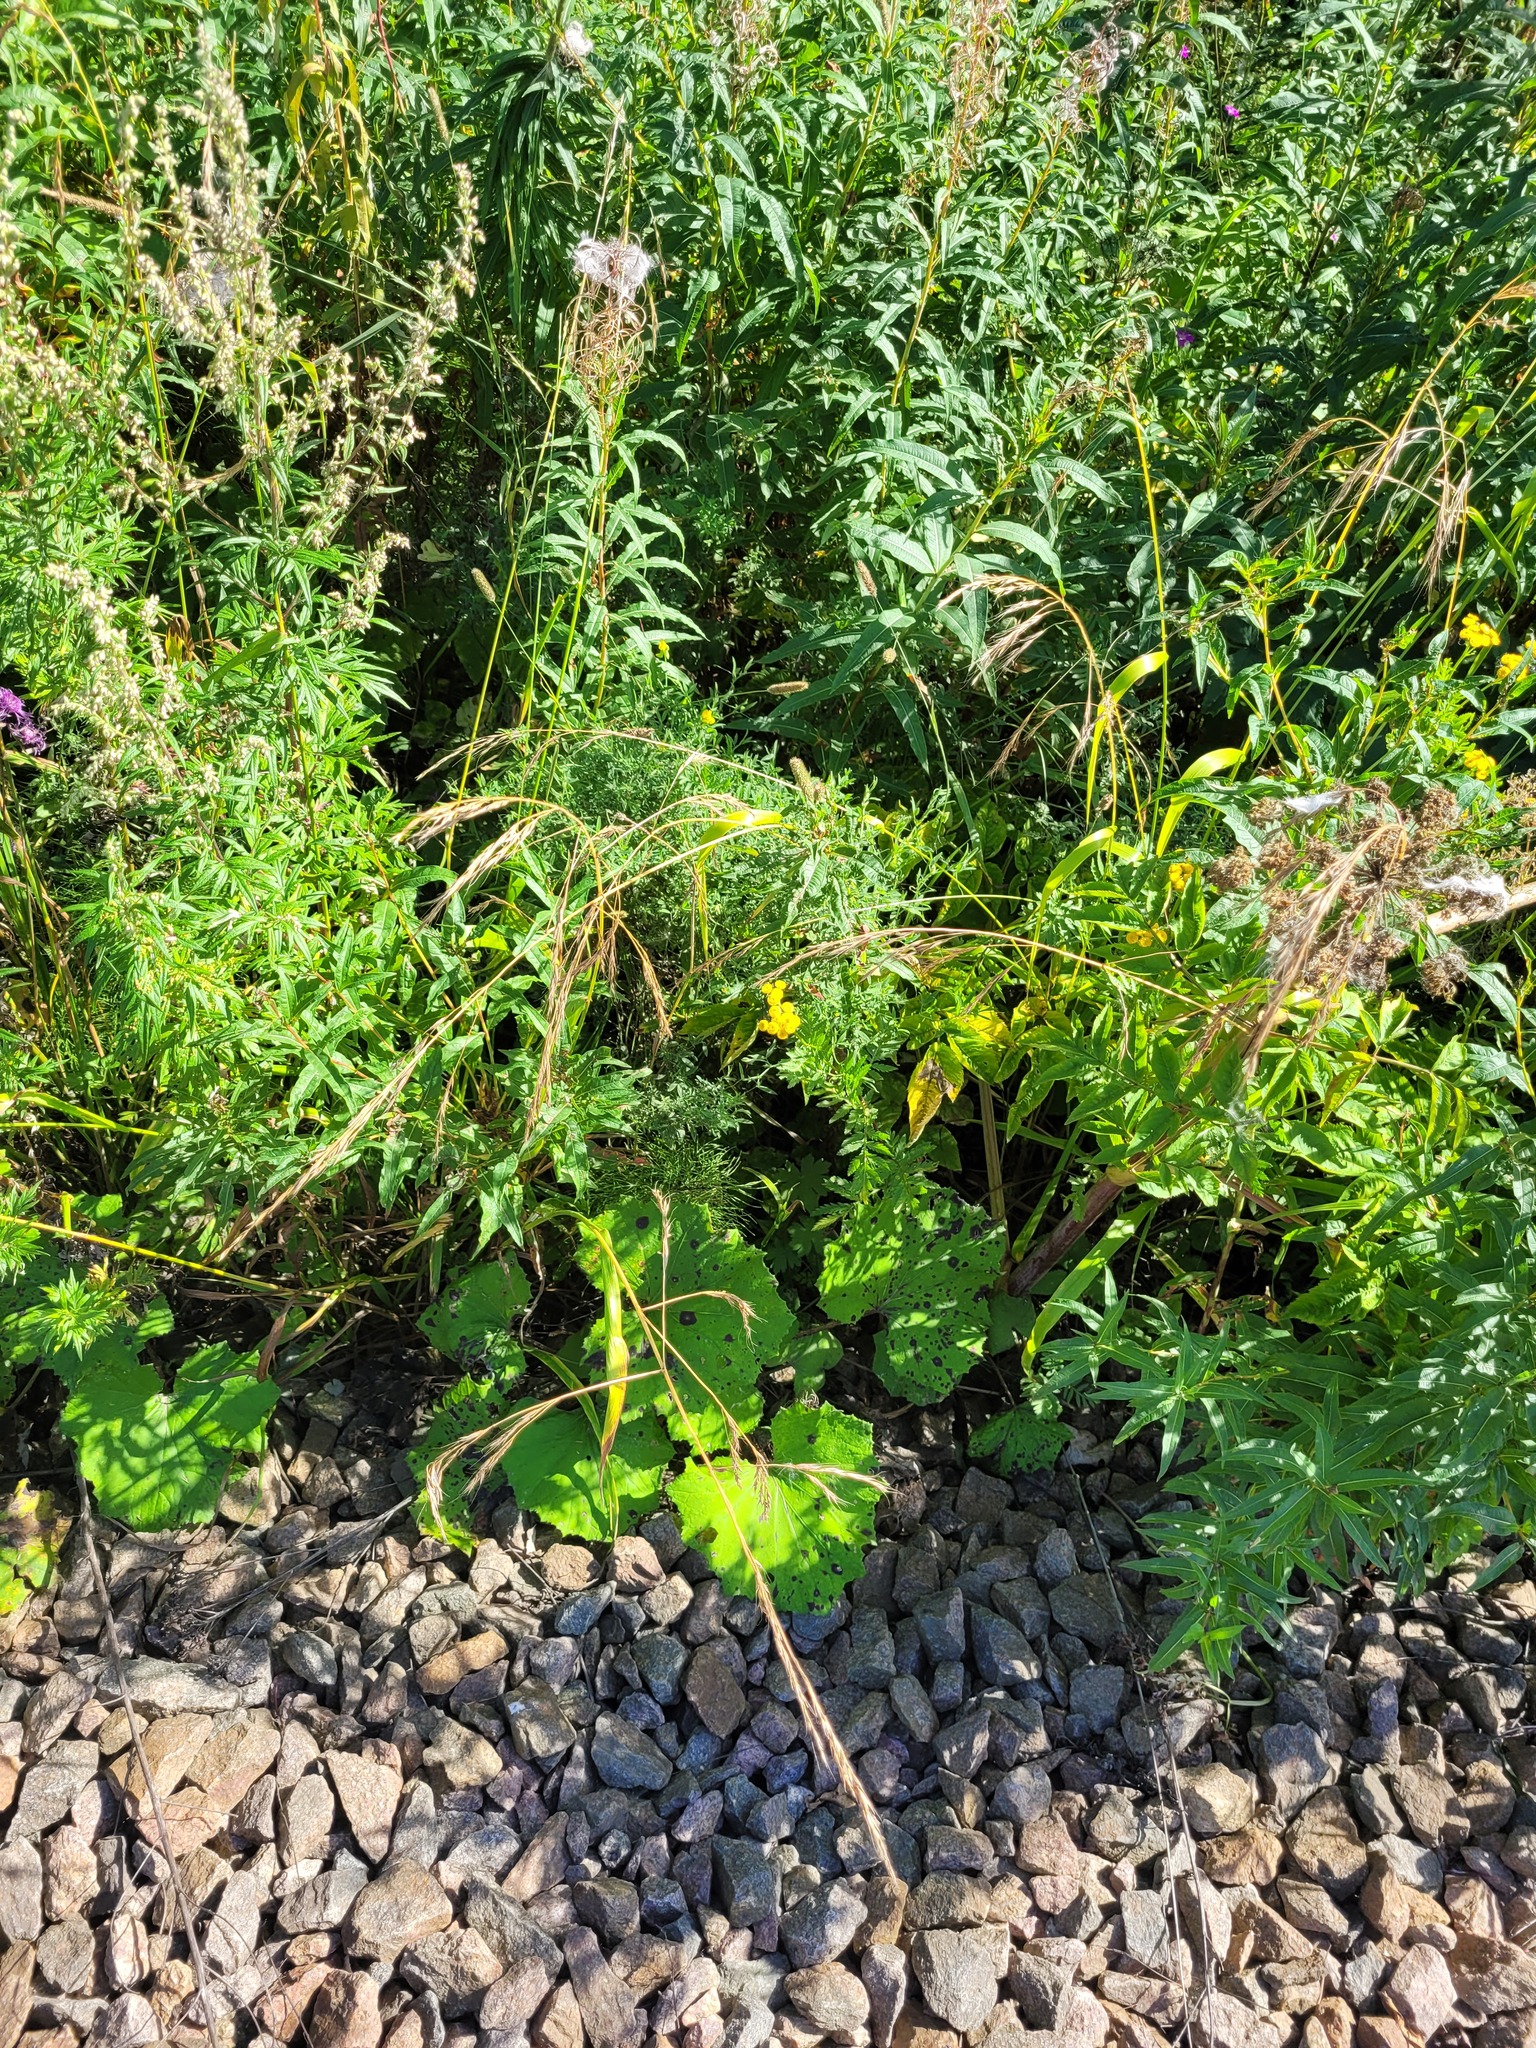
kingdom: Plantae
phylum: Tracheophyta
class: Liliopsida
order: Poales
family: Poaceae
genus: Lolium
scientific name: Lolium giganteum
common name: Giant fescue
